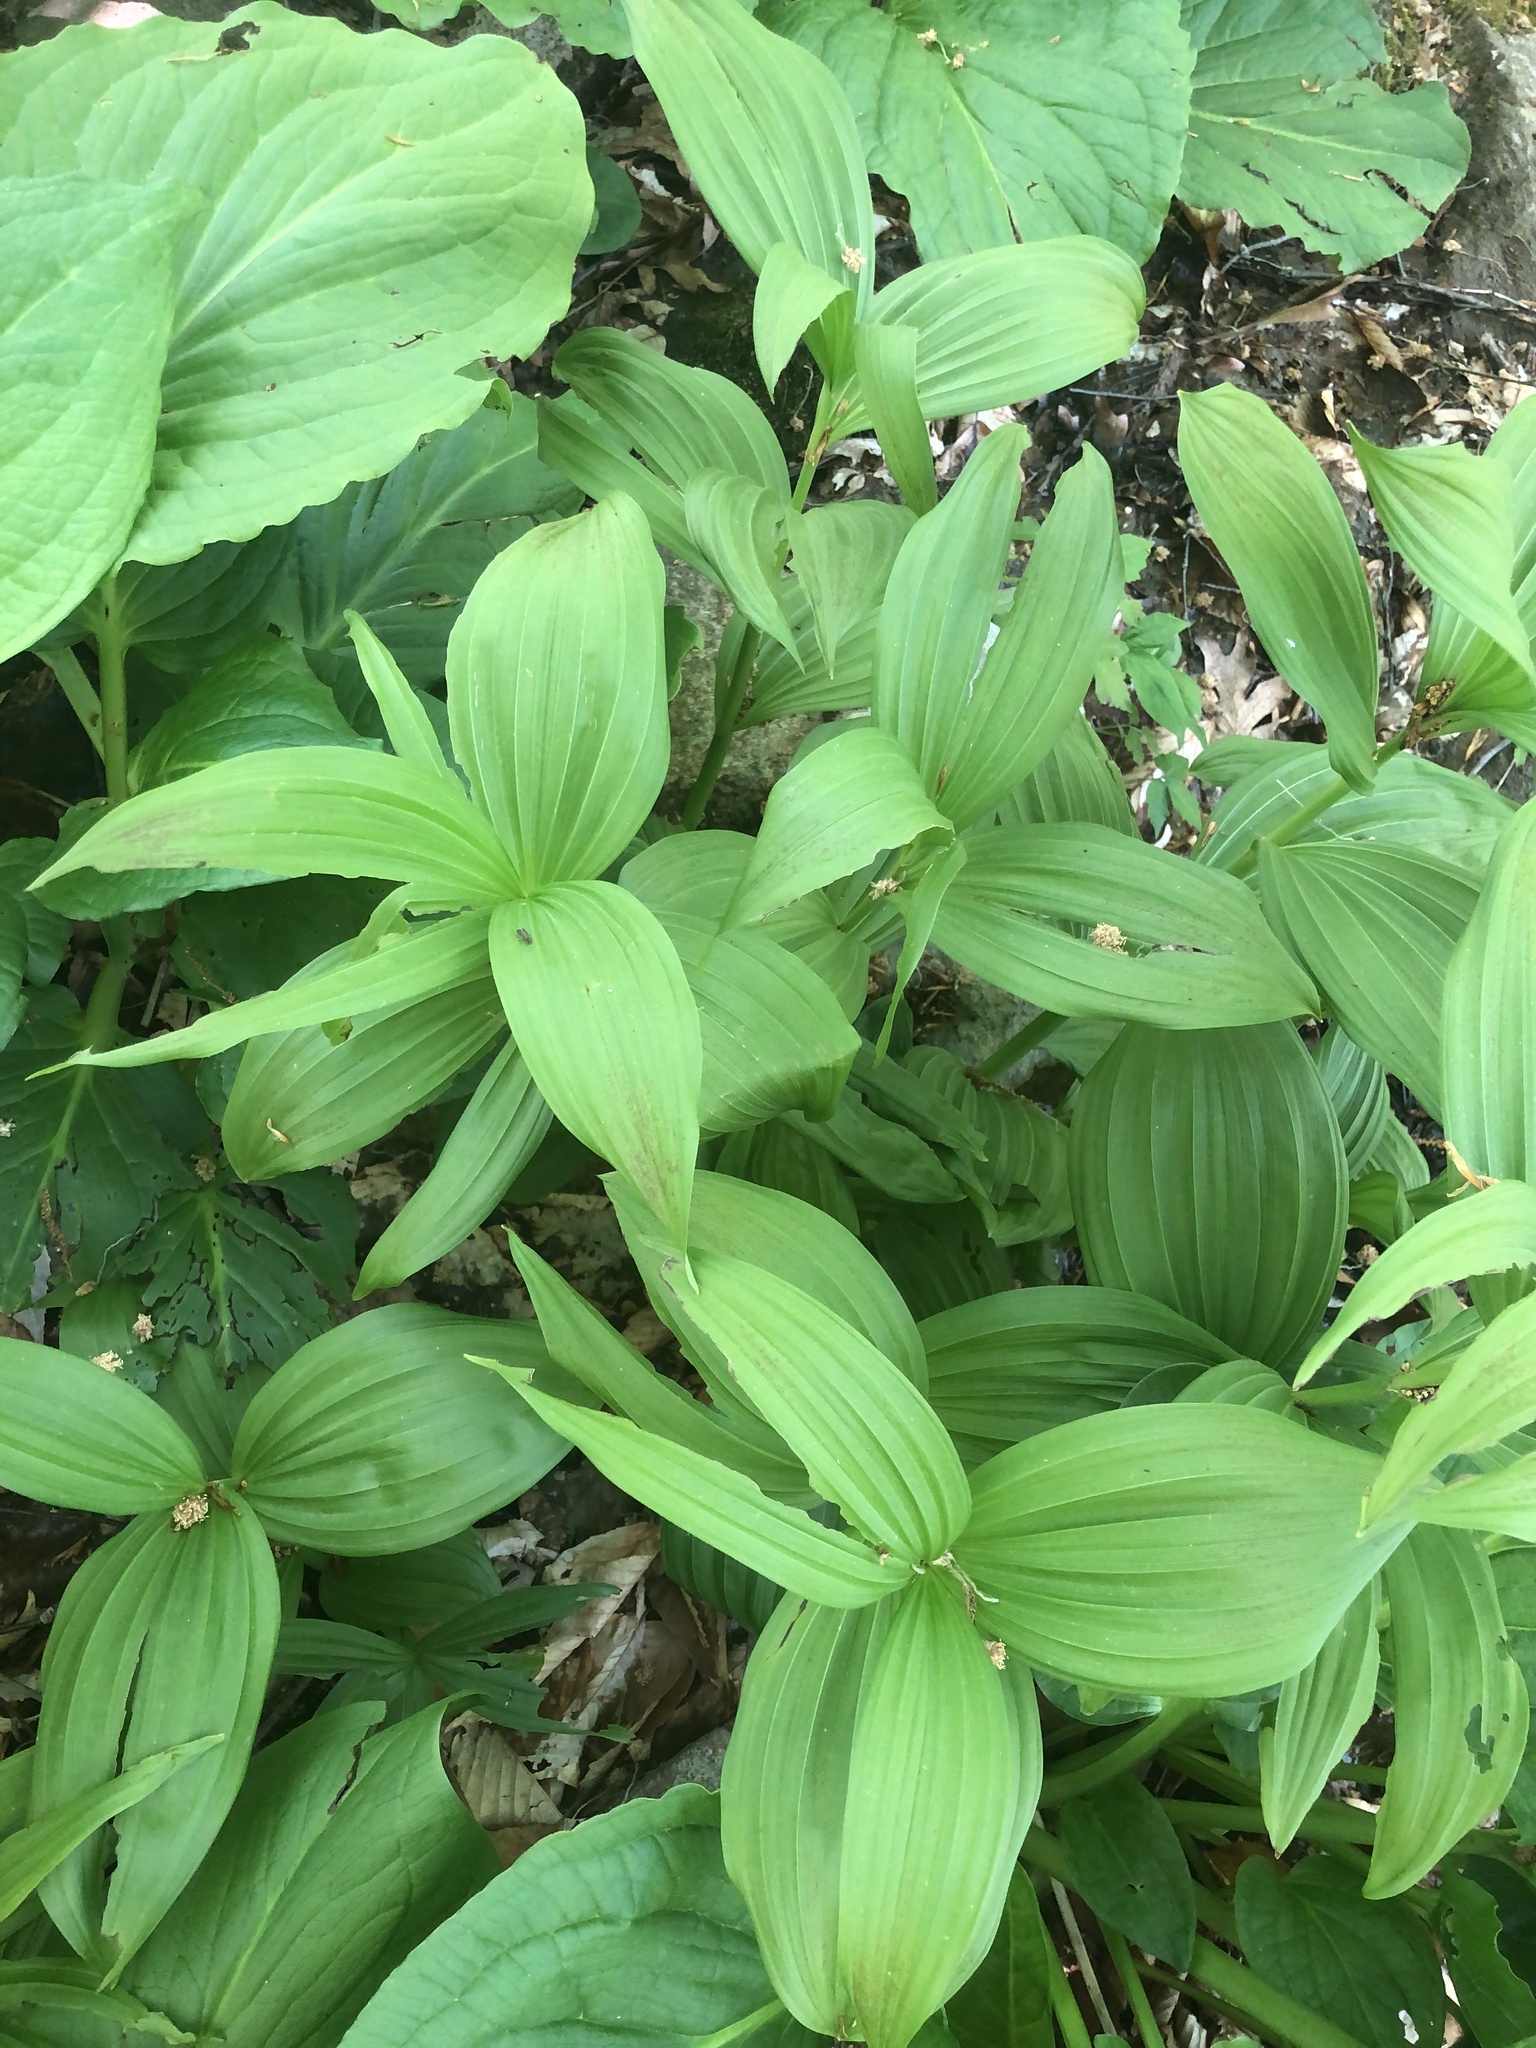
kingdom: Plantae
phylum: Tracheophyta
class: Liliopsida
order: Liliales
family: Melanthiaceae
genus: Veratrum
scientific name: Veratrum viride
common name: American false hellebore
